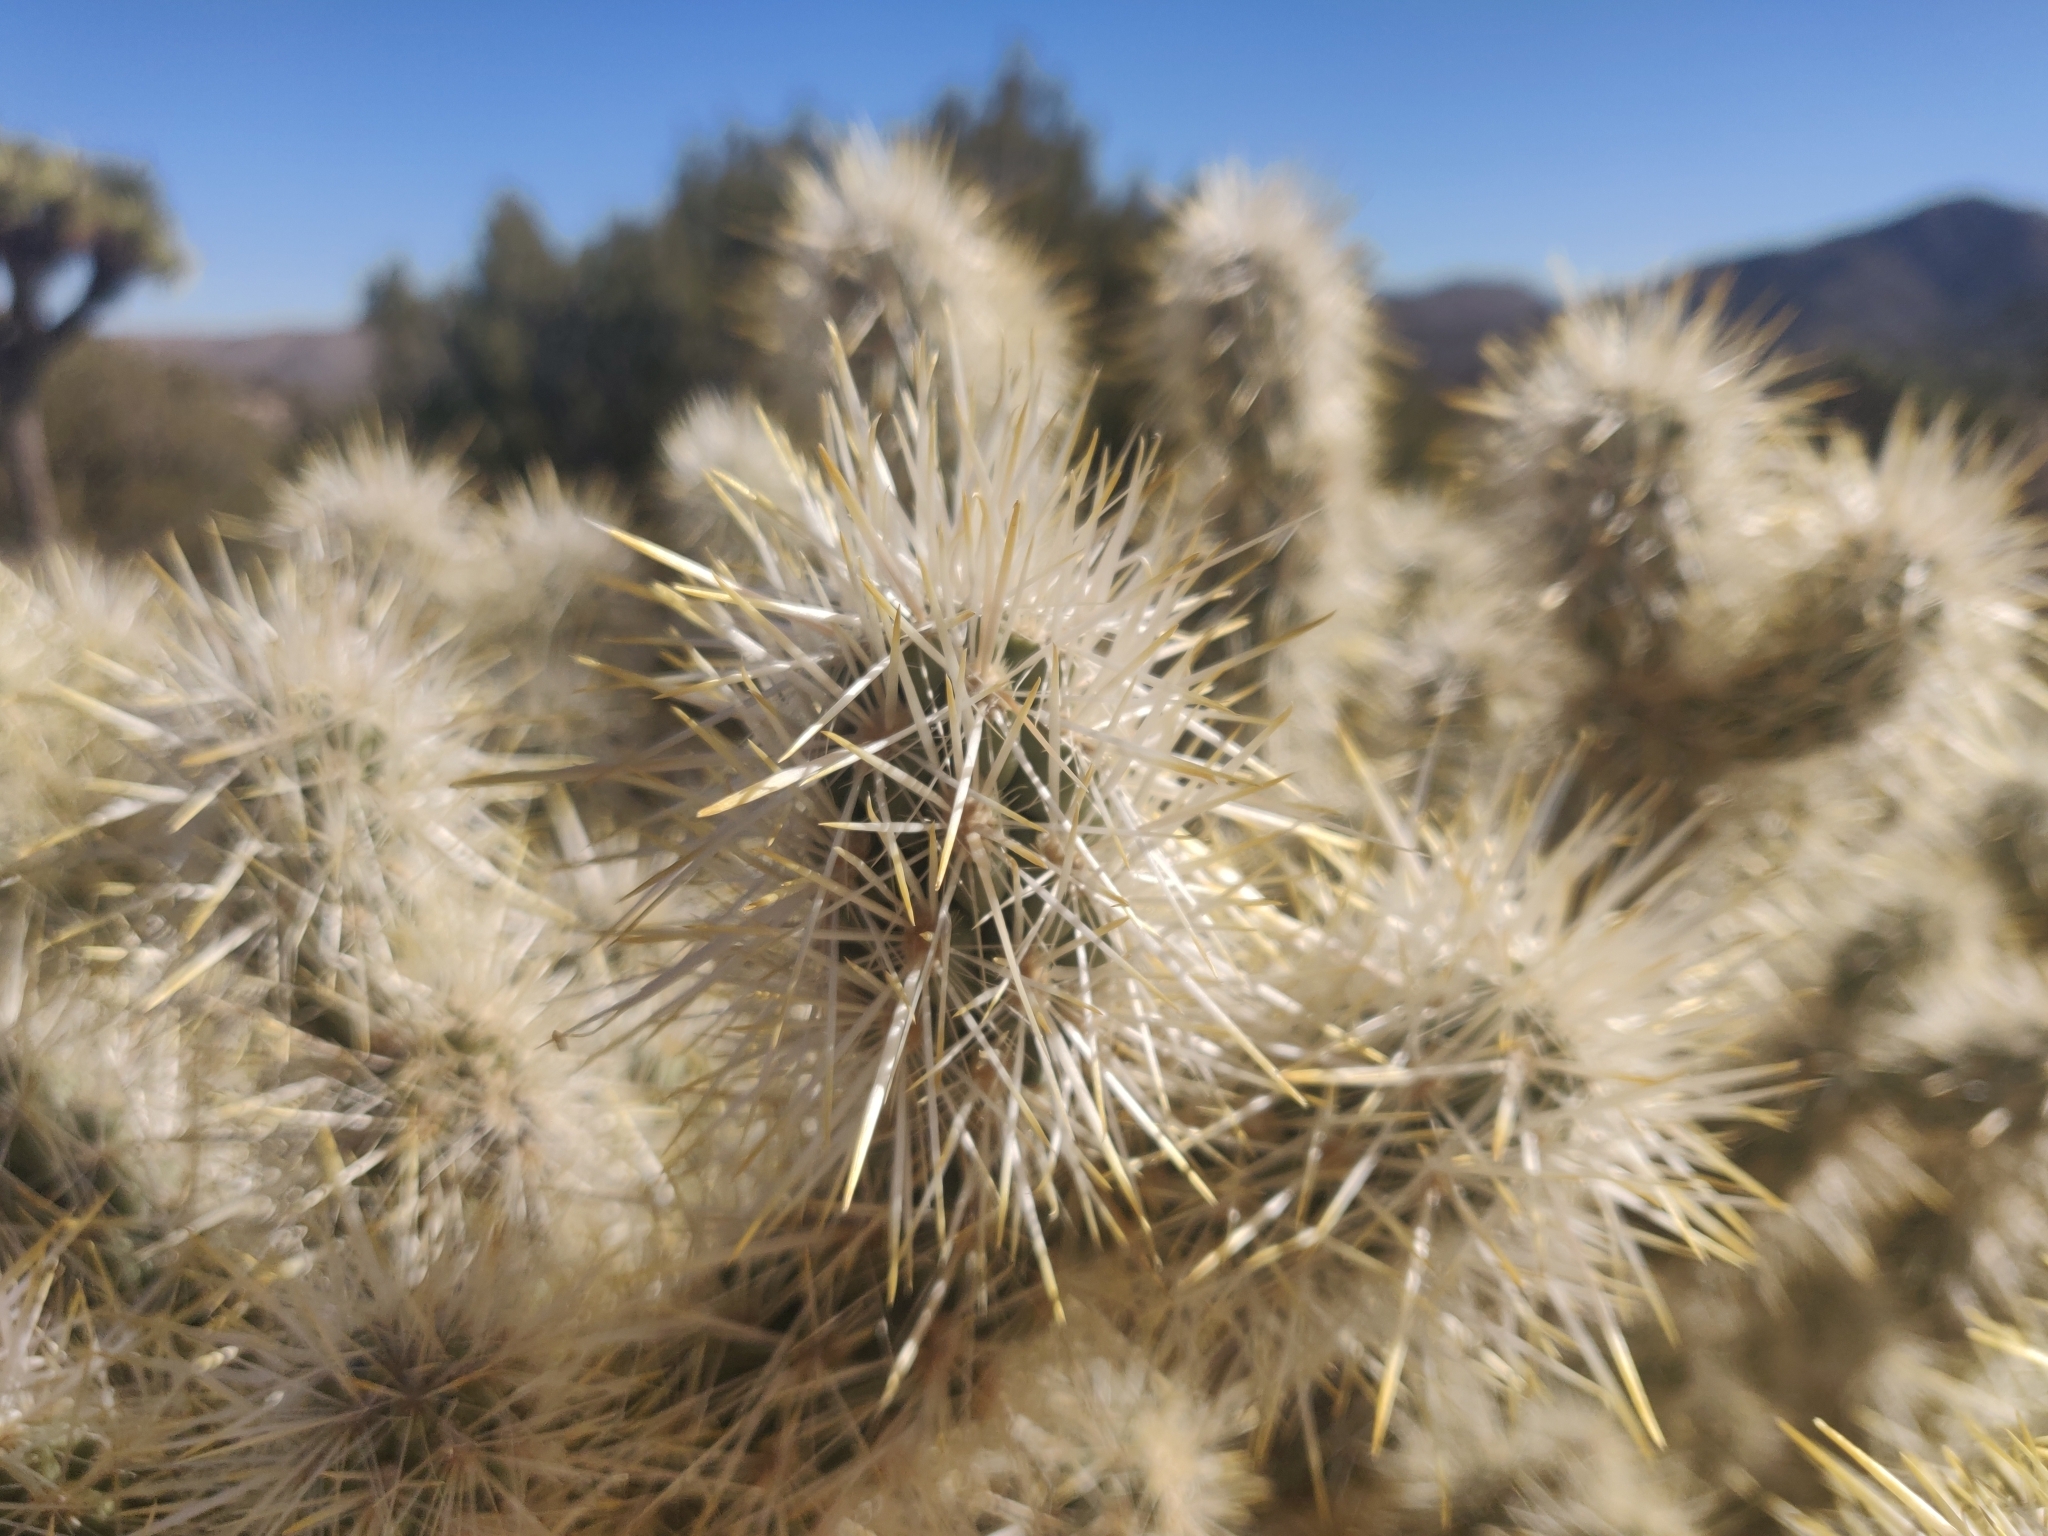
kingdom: Plantae
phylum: Tracheophyta
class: Magnoliopsida
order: Caryophyllales
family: Cactaceae
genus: Cylindropuntia
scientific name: Cylindropuntia echinocarpa
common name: Ground cholla
